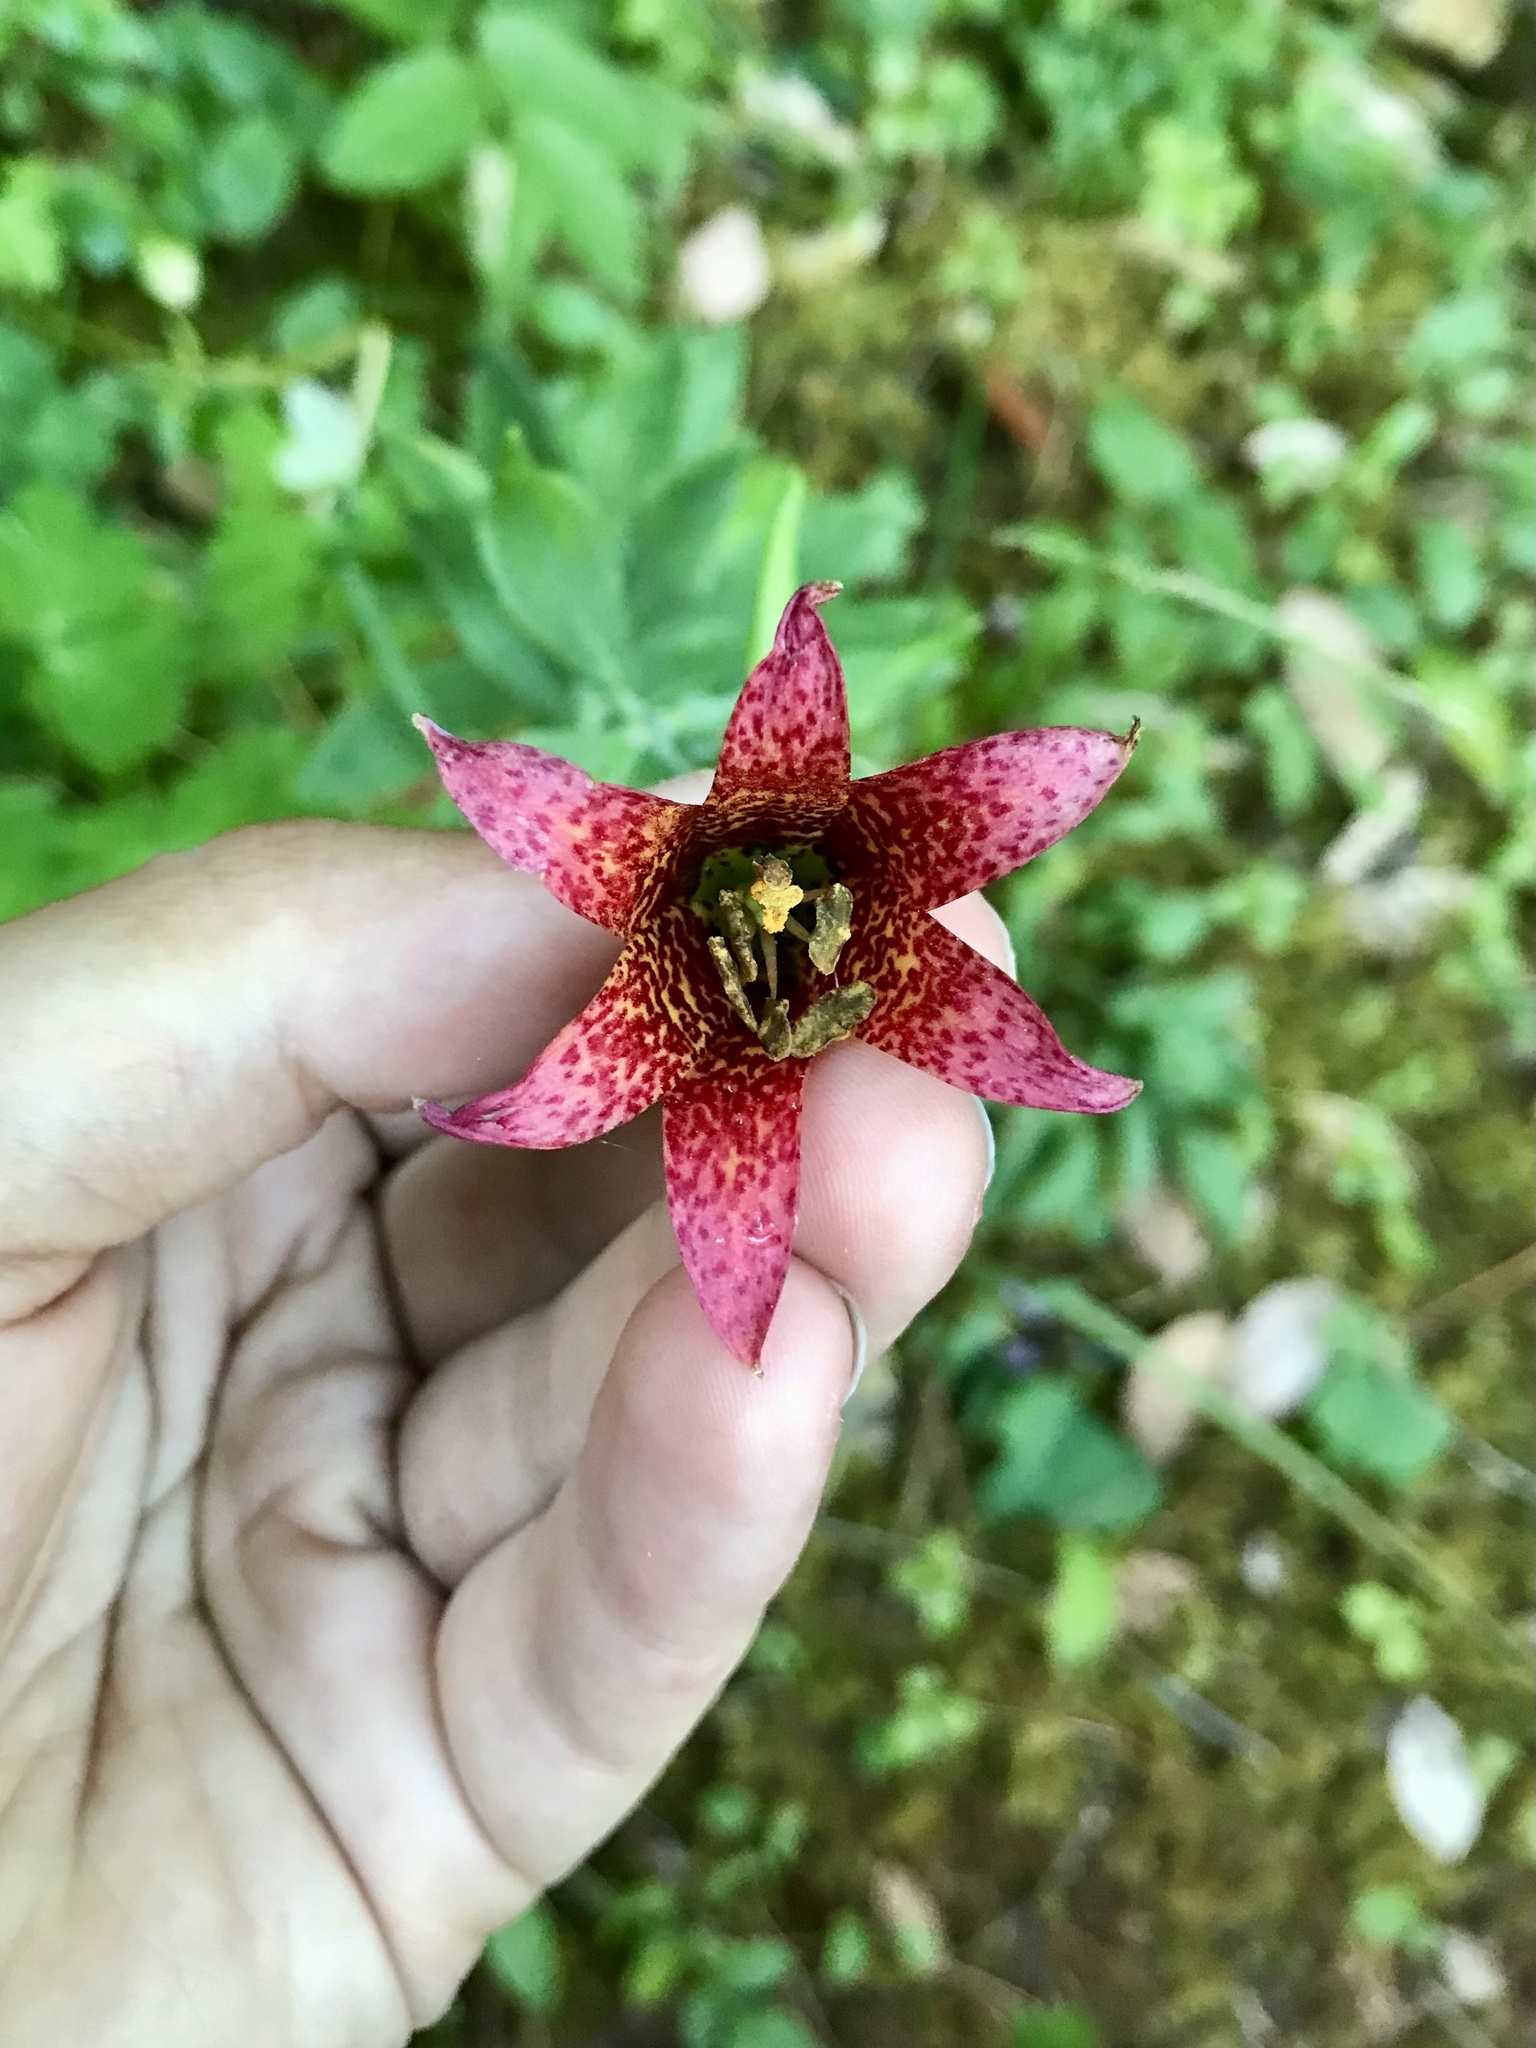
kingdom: Plantae
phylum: Tracheophyta
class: Liliopsida
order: Liliales
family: Liliaceae
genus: Lilium
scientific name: Lilium bolanderi
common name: Bolander's lily
